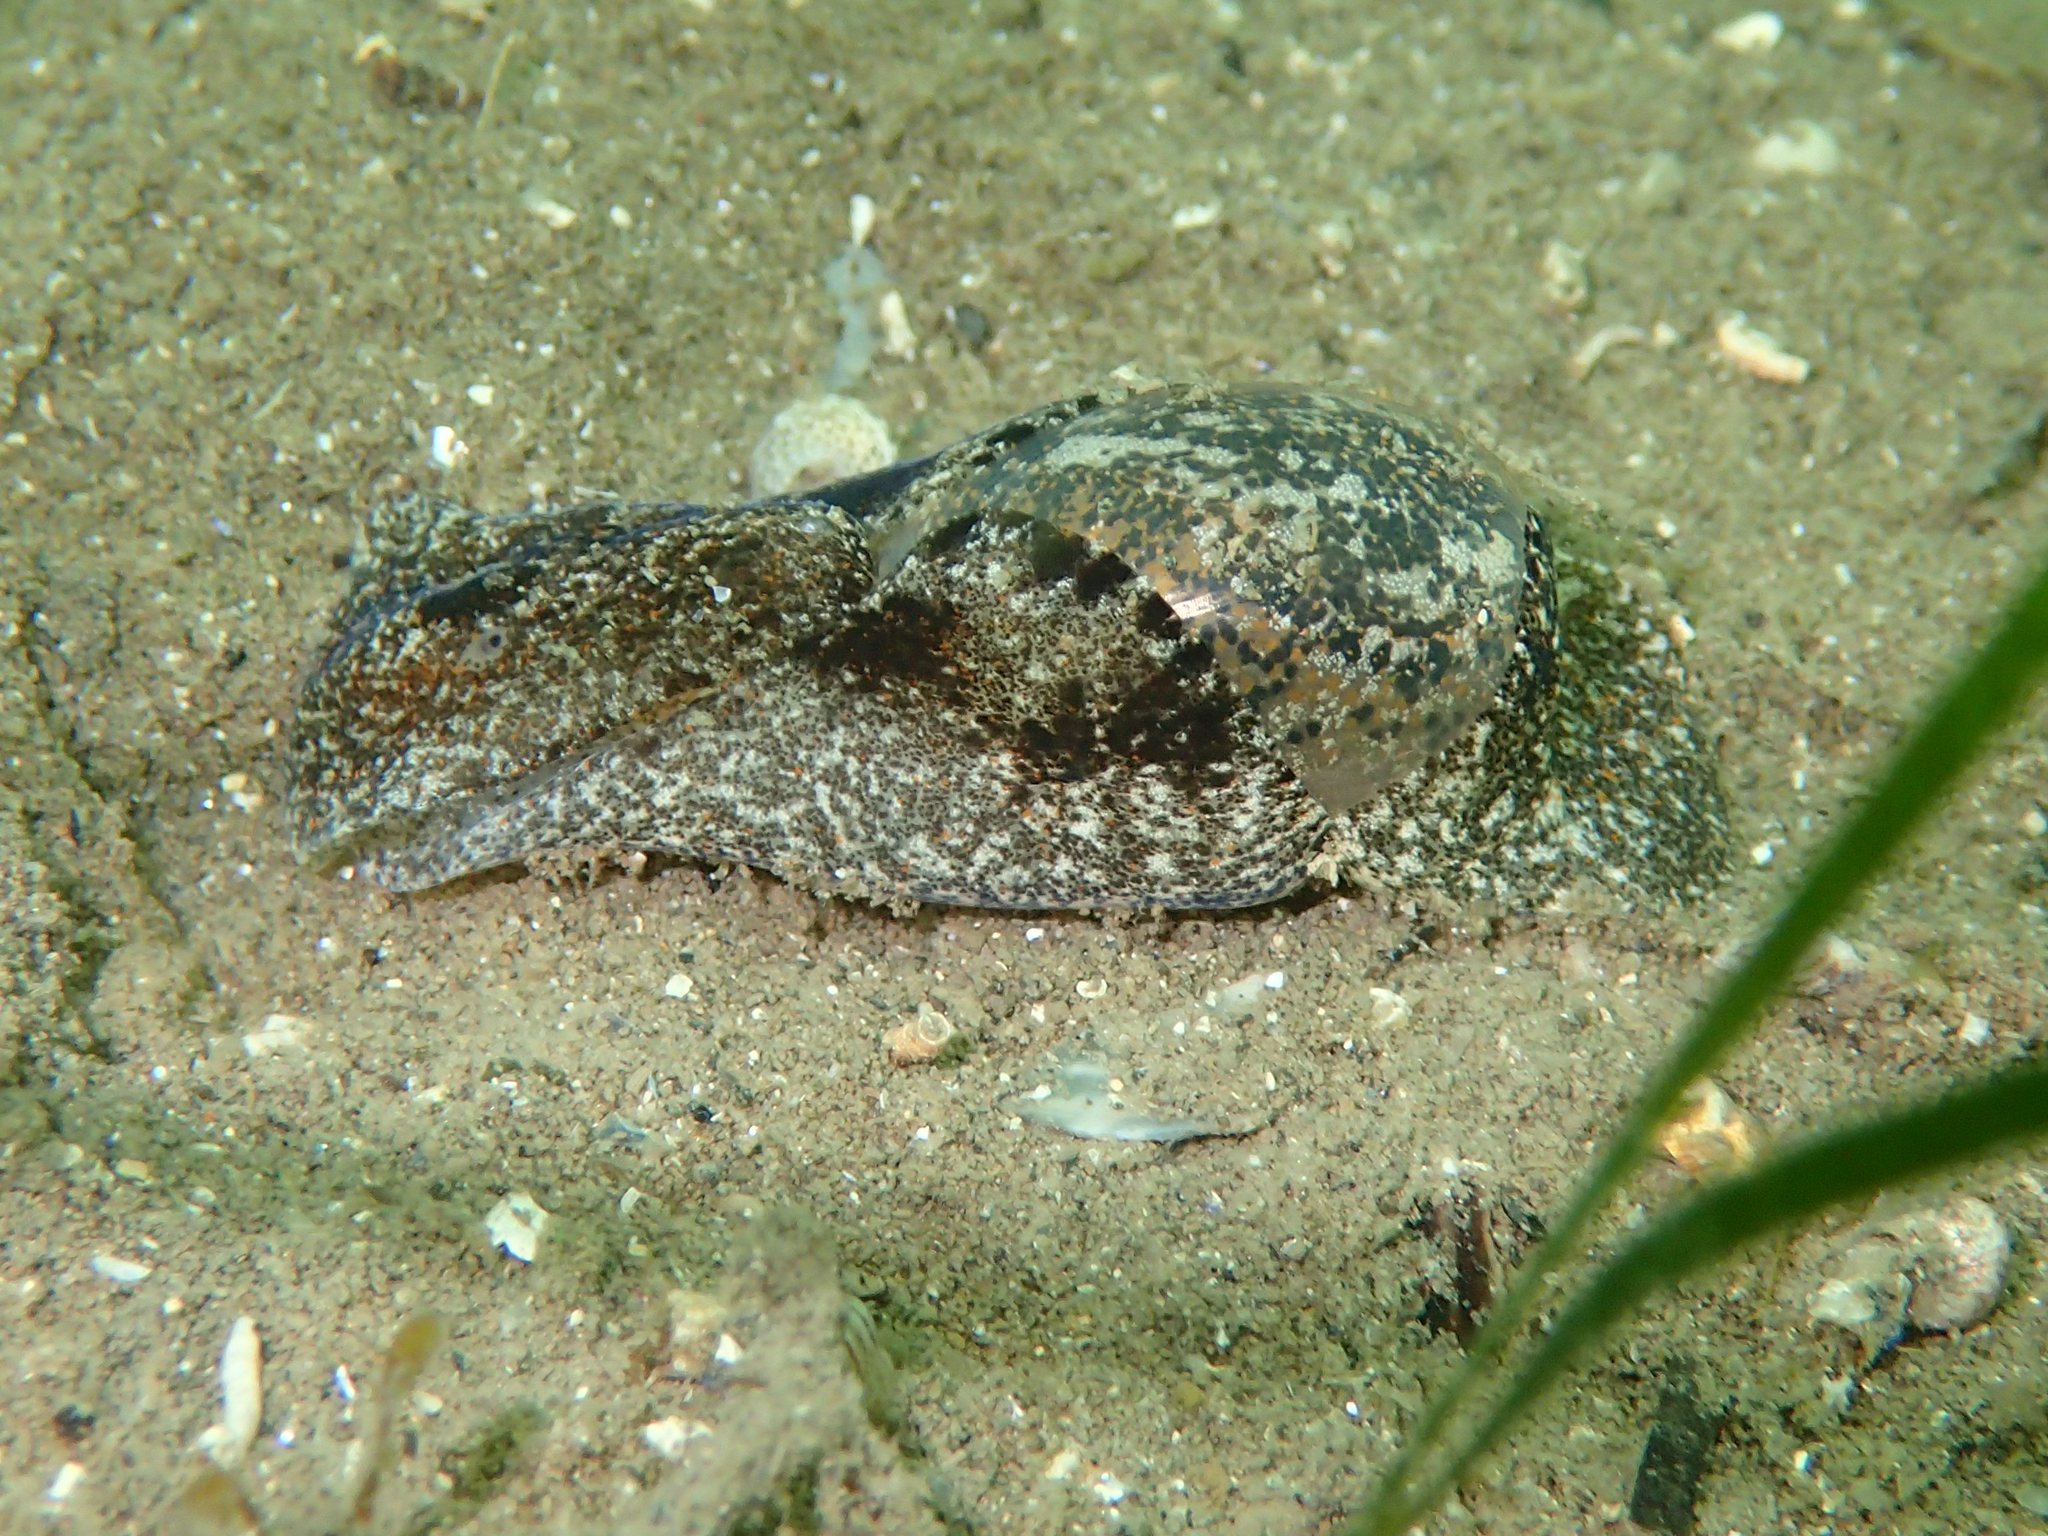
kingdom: Animalia
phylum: Mollusca
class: Gastropoda
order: Cephalaspidea
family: Haminoeidae
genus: Haminoea
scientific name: Haminoea navicula
